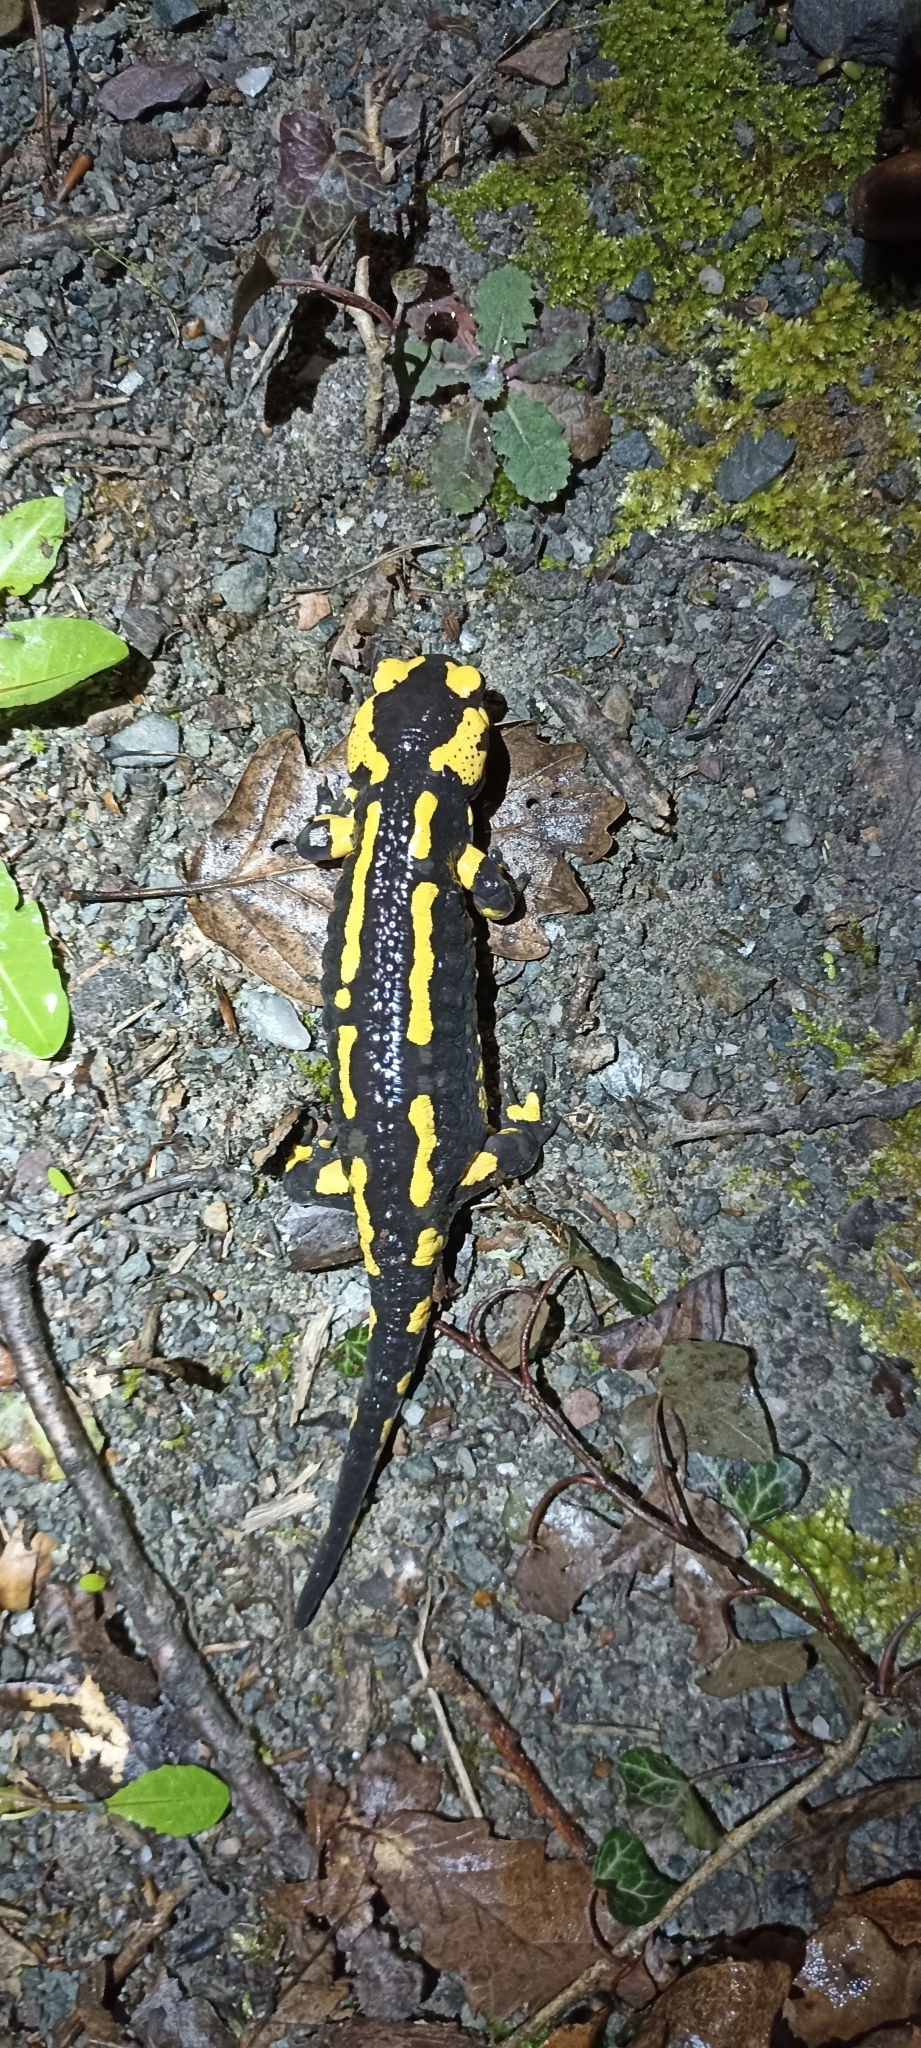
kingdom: Animalia
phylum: Chordata
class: Amphibia
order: Caudata
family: Salamandridae
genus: Salamandra
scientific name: Salamandra salamandra
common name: Fire salamander
